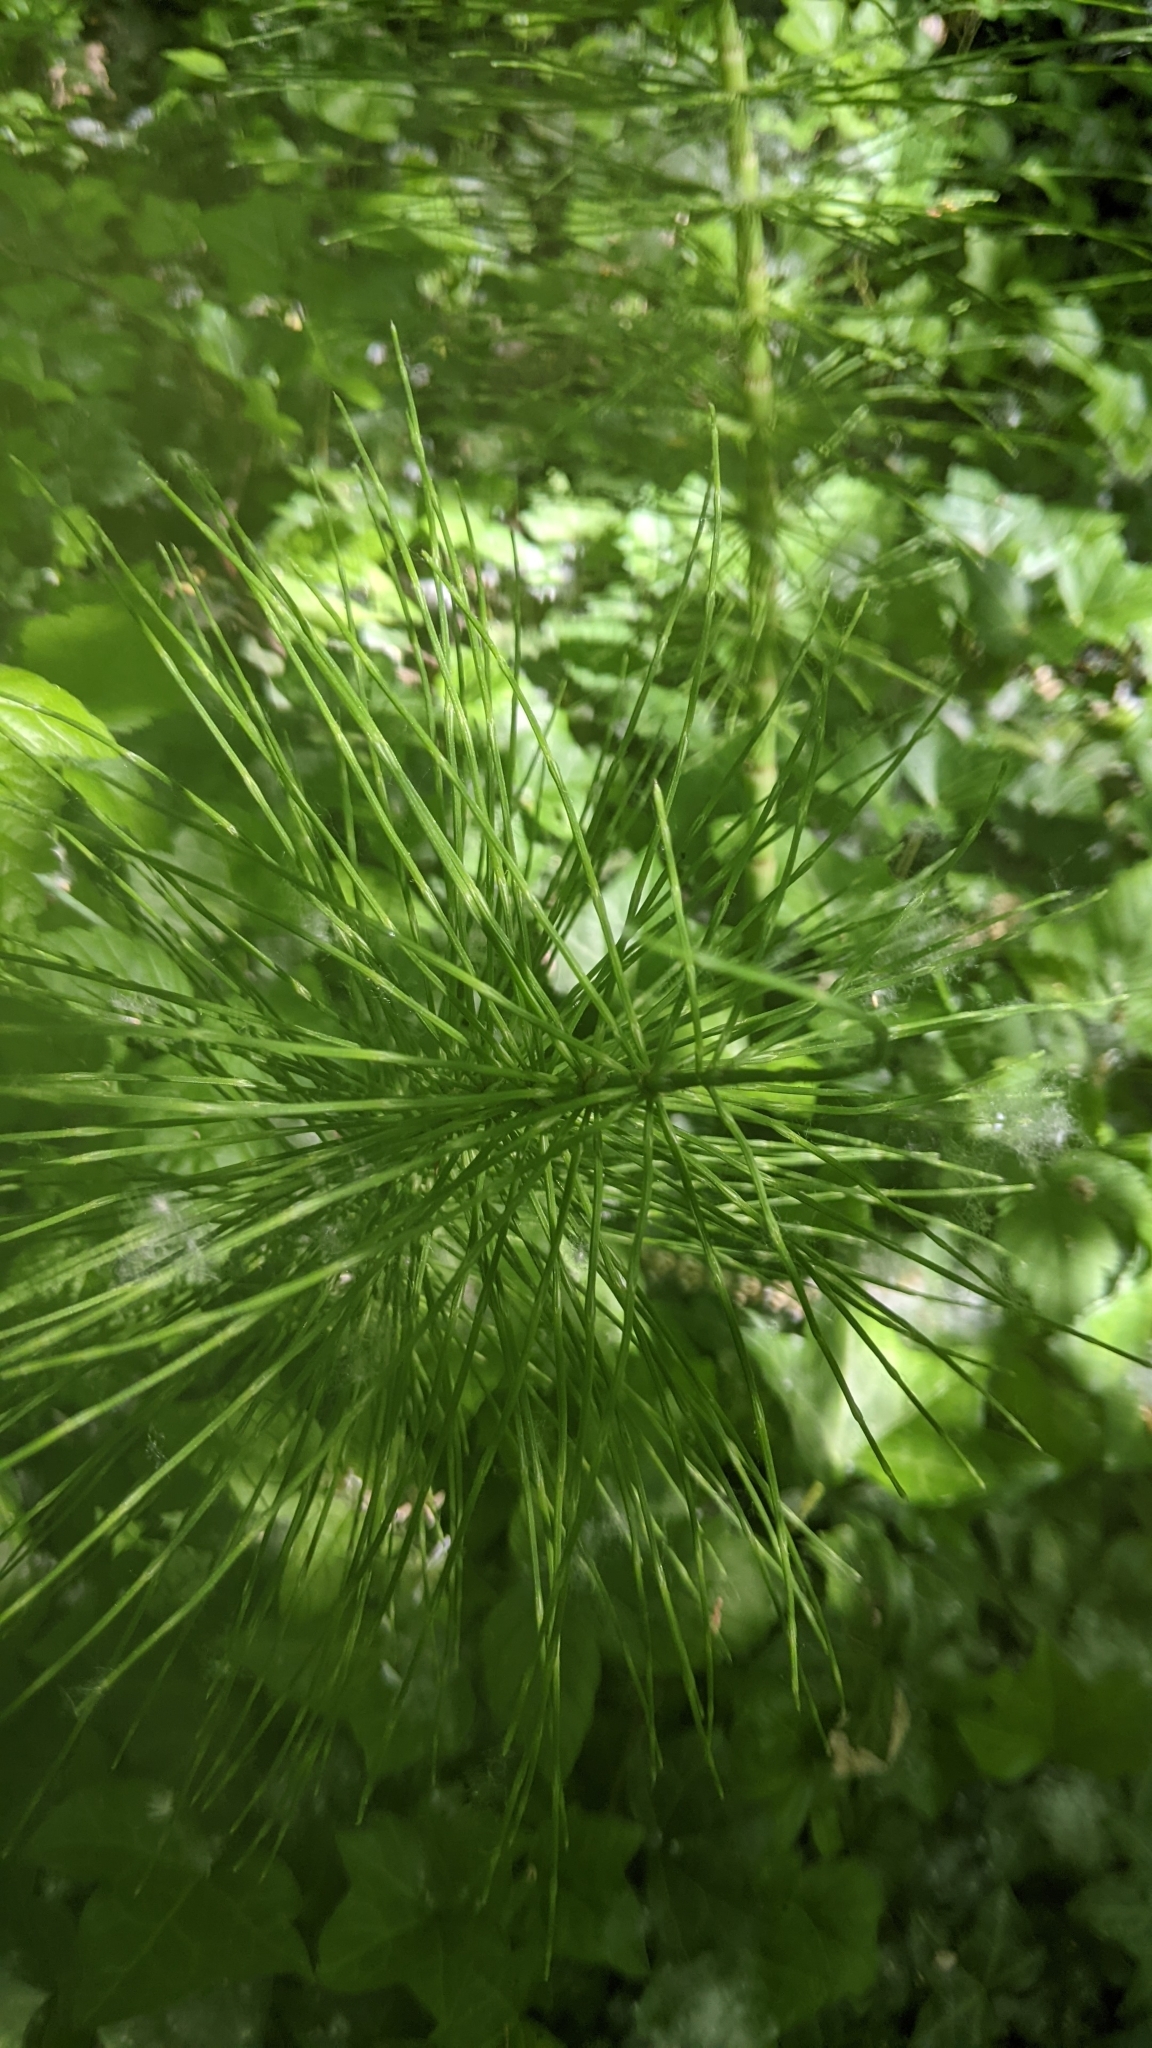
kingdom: Plantae
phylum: Tracheophyta
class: Polypodiopsida
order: Equisetales
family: Equisetaceae
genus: Equisetum
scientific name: Equisetum braunii
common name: Braun's horsetail
